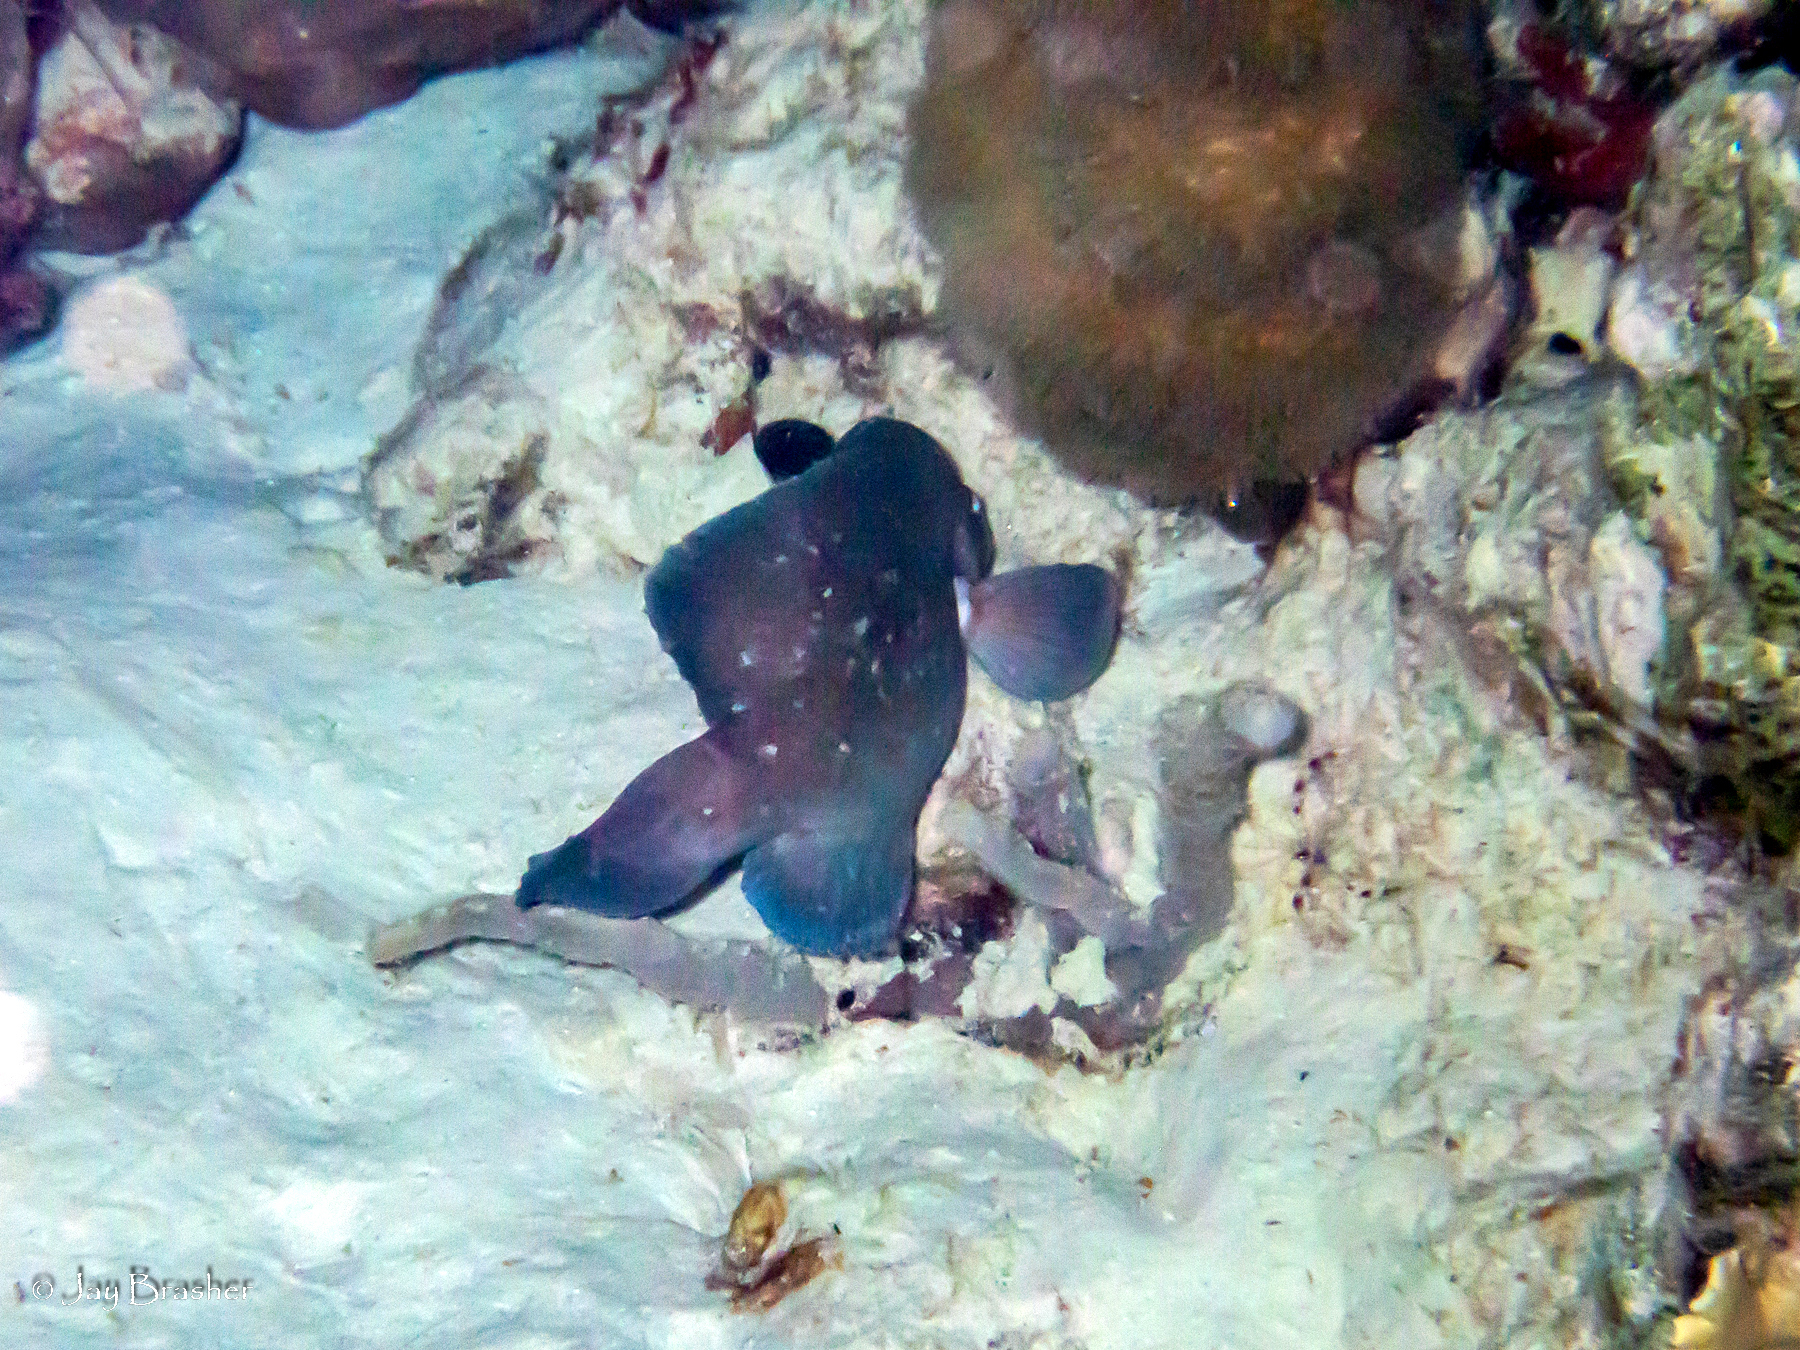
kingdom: Animalia
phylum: Chordata
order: Perciformes
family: Serranidae
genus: Rypticus
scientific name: Rypticus saponaceus
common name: Soapfish
